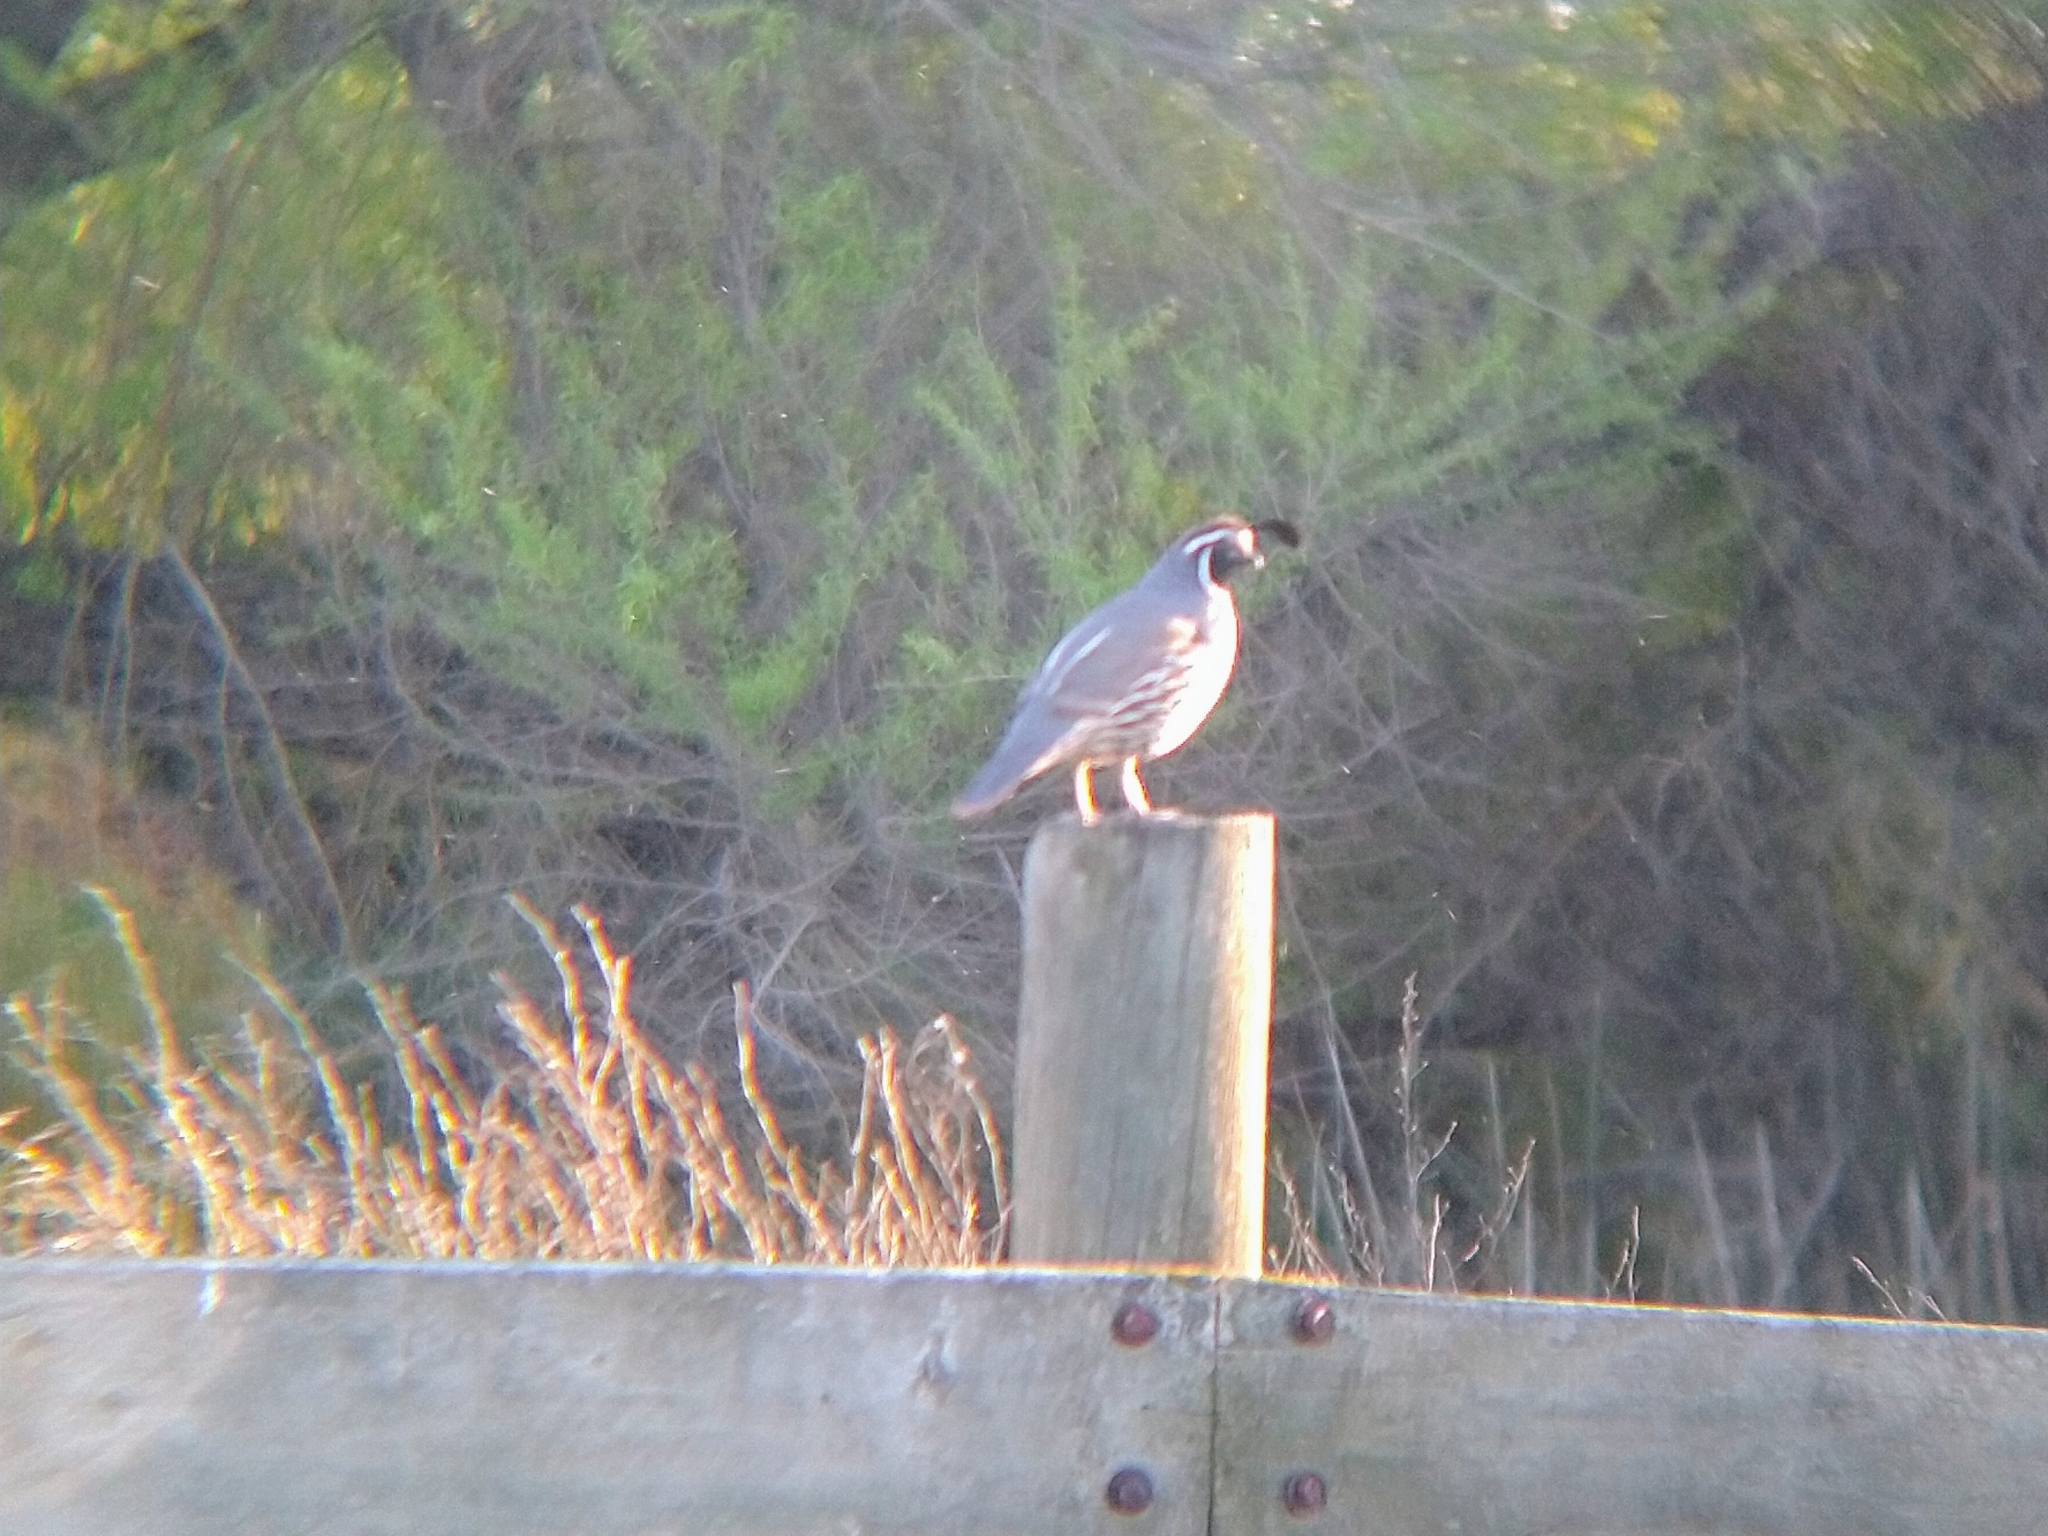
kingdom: Animalia
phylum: Chordata
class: Aves
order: Galliformes
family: Odontophoridae
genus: Callipepla
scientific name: Callipepla californica
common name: California quail
